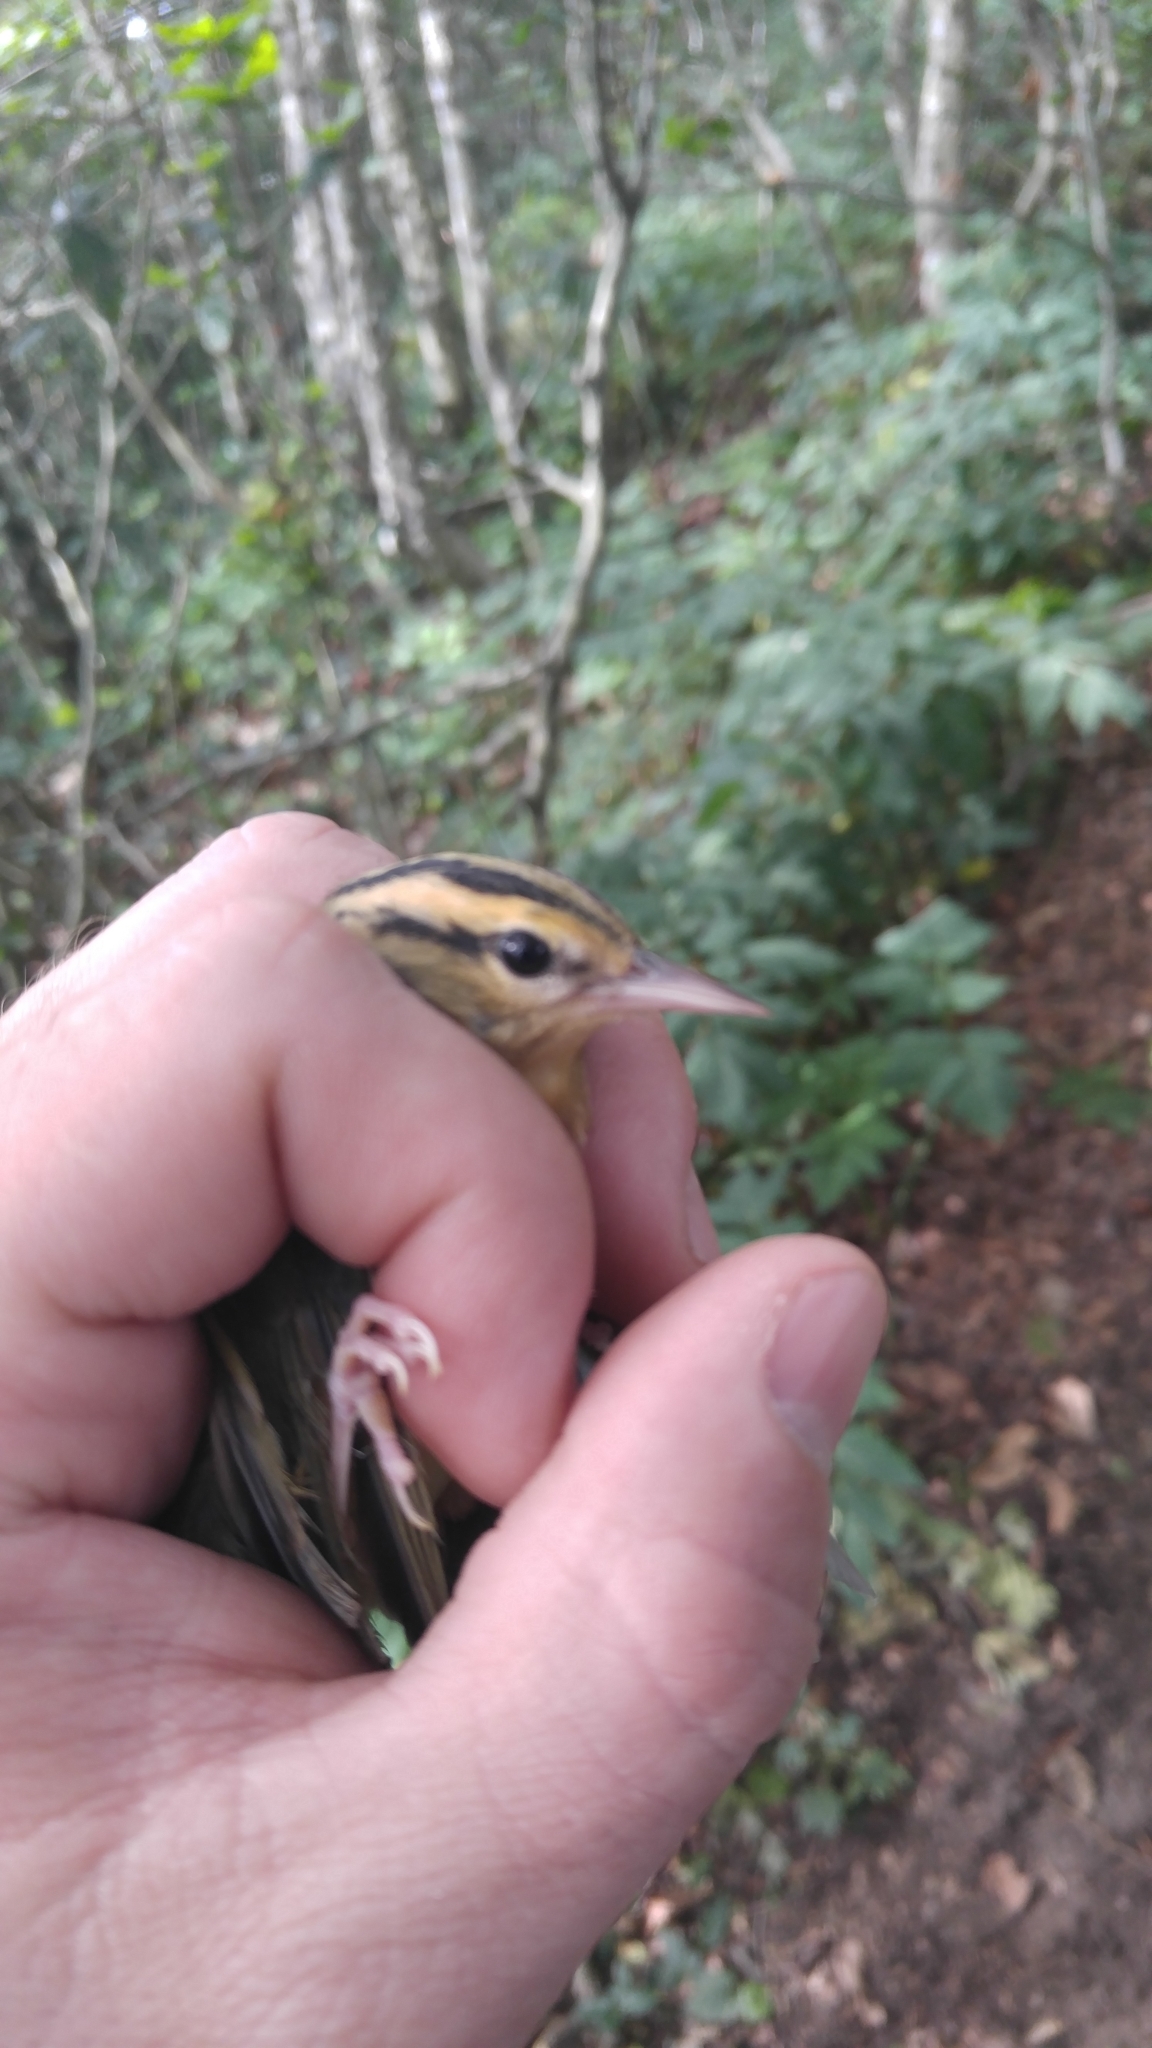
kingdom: Animalia
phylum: Chordata
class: Aves
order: Passeriformes
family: Parulidae
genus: Helmitheros
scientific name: Helmitheros vermivorum
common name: Worm-eating warbler
